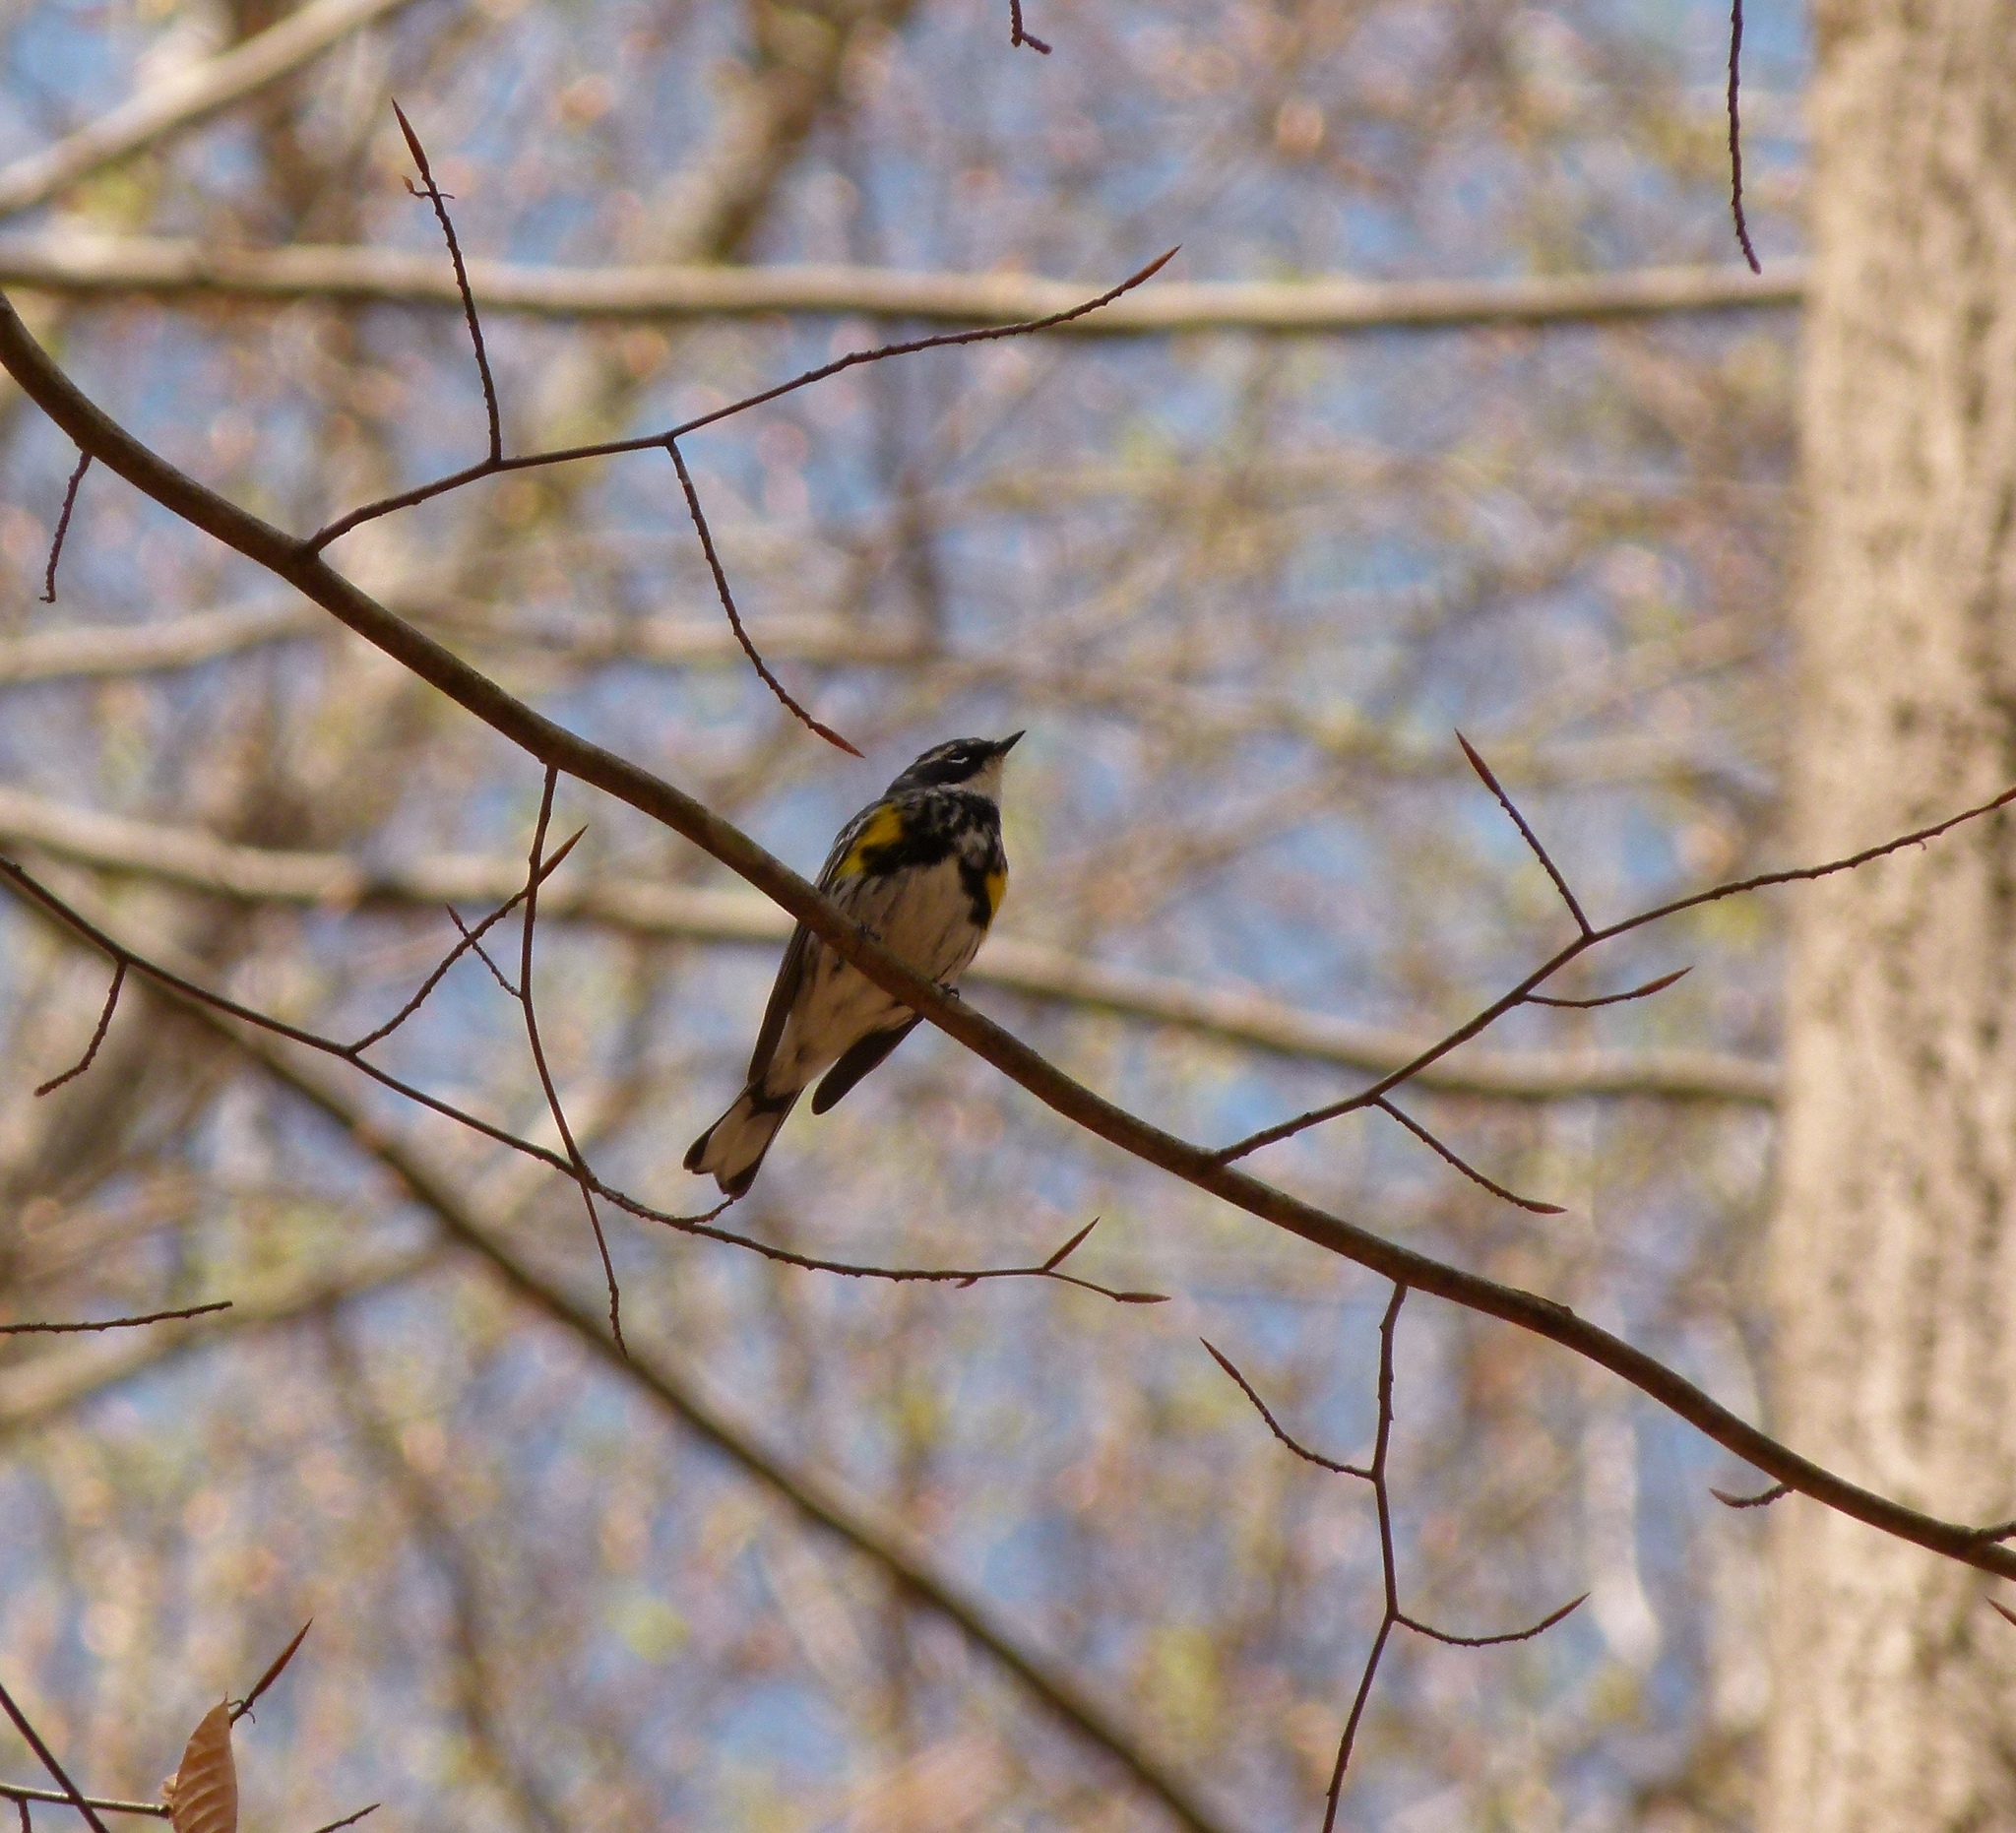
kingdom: Animalia
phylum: Chordata
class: Aves
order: Passeriformes
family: Parulidae
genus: Setophaga
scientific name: Setophaga coronata
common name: Myrtle warbler
